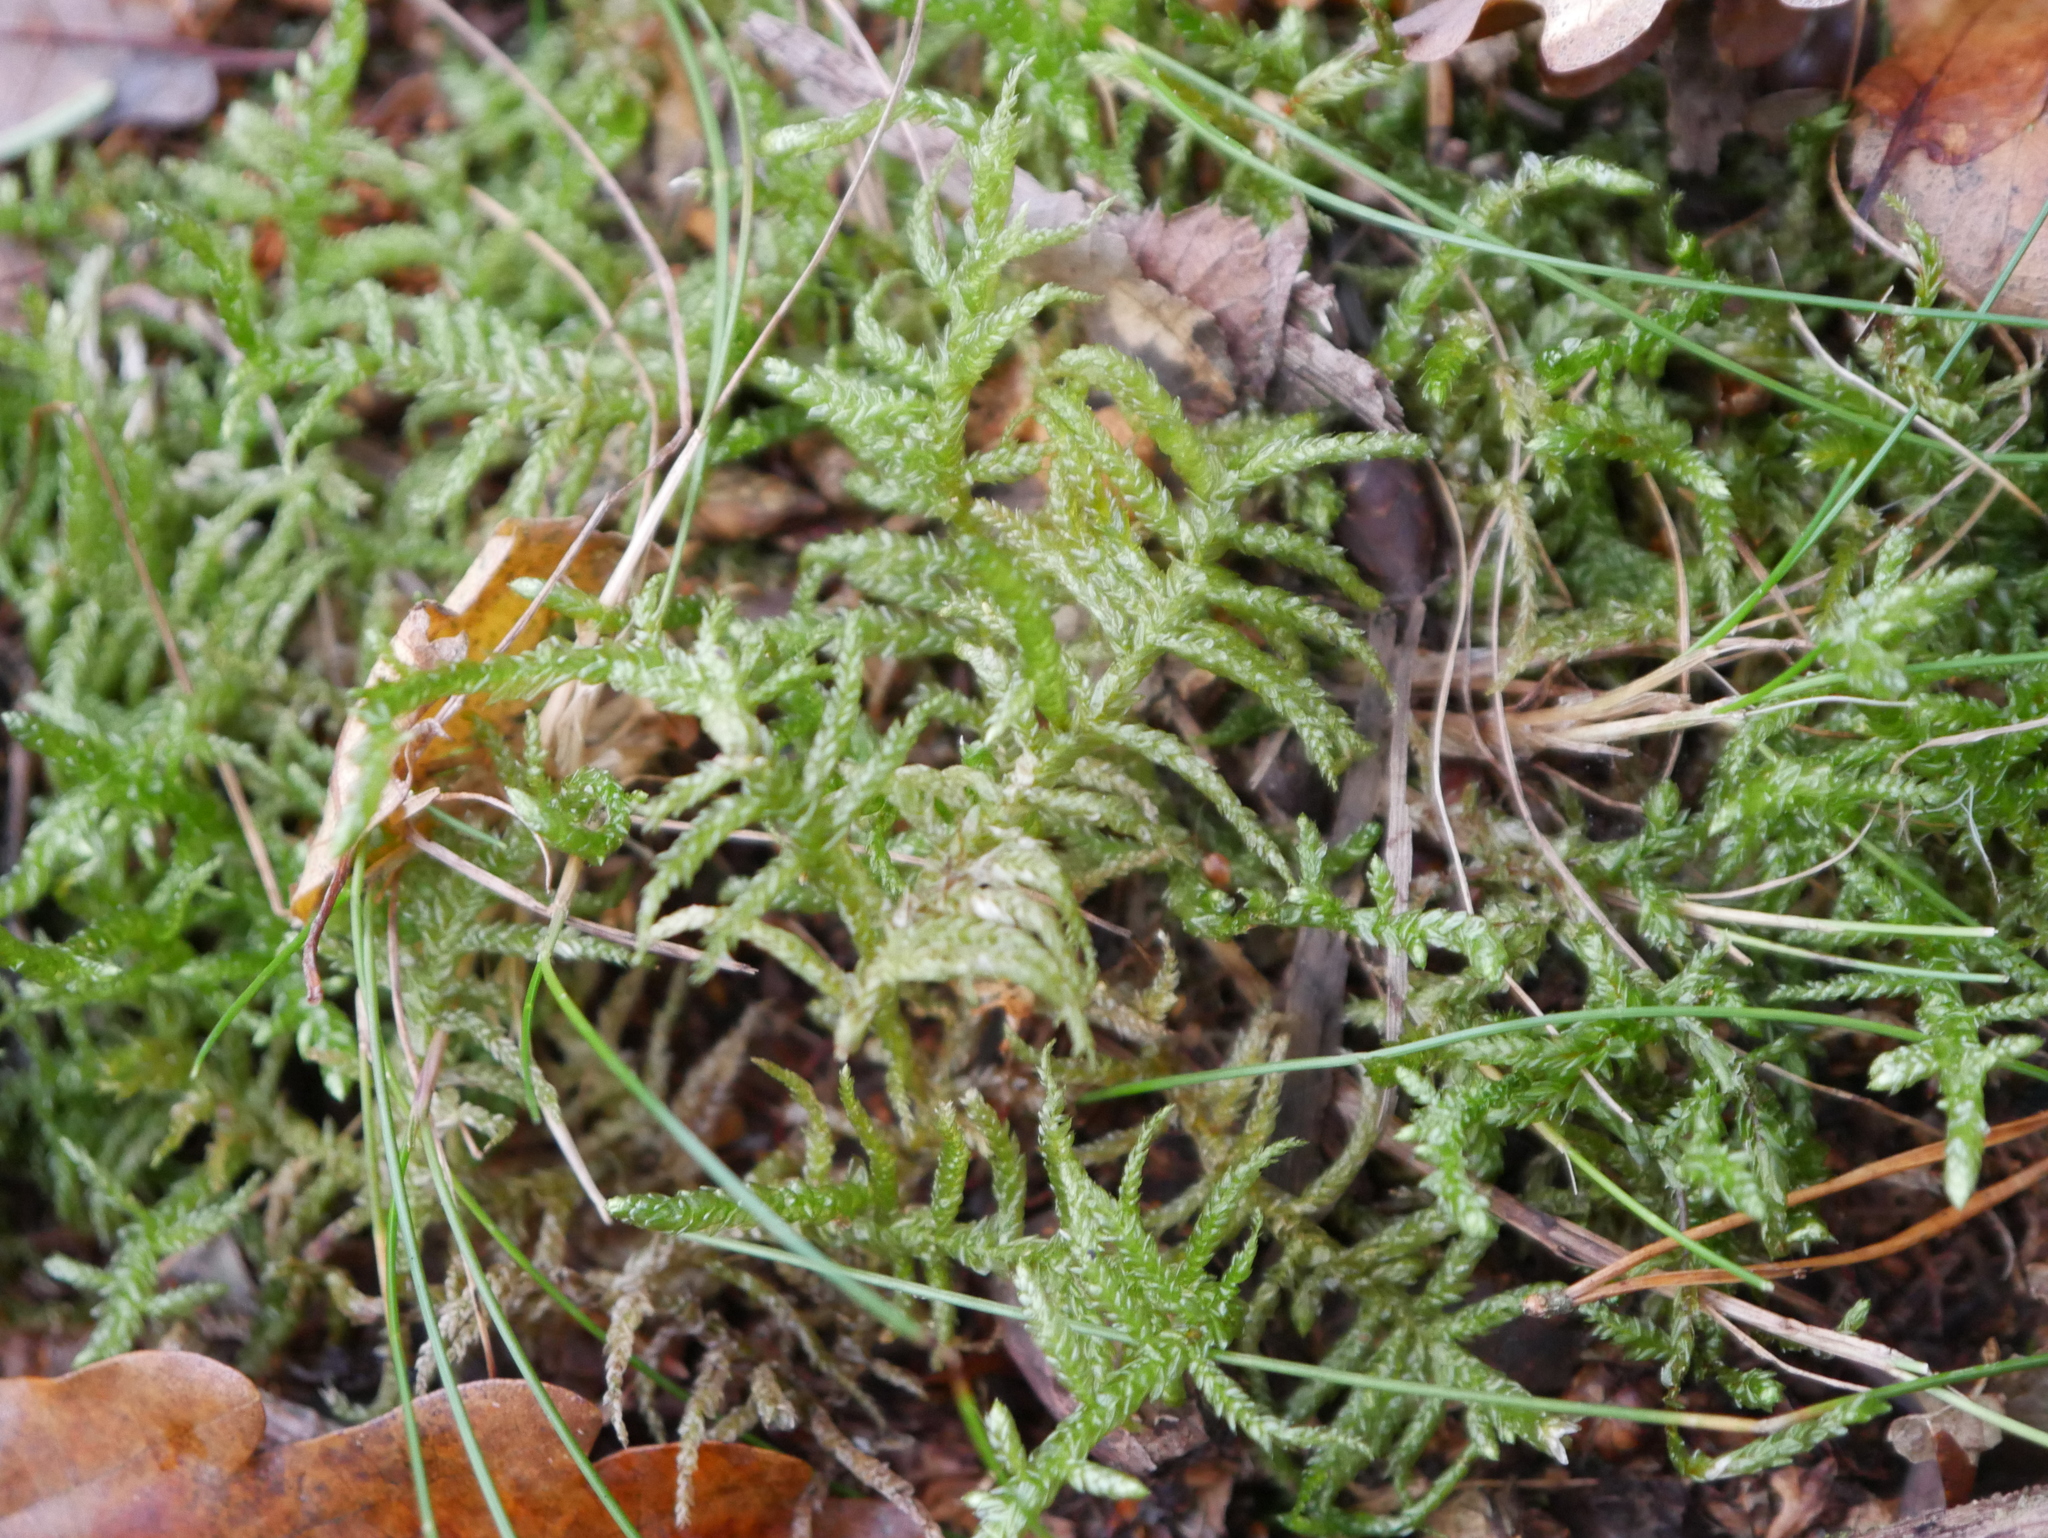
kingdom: Plantae
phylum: Bryophyta
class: Bryopsida
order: Hypnales
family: Brachytheciaceae
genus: Pseudoscleropodium
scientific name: Pseudoscleropodium purum
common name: Neat feather-moss
